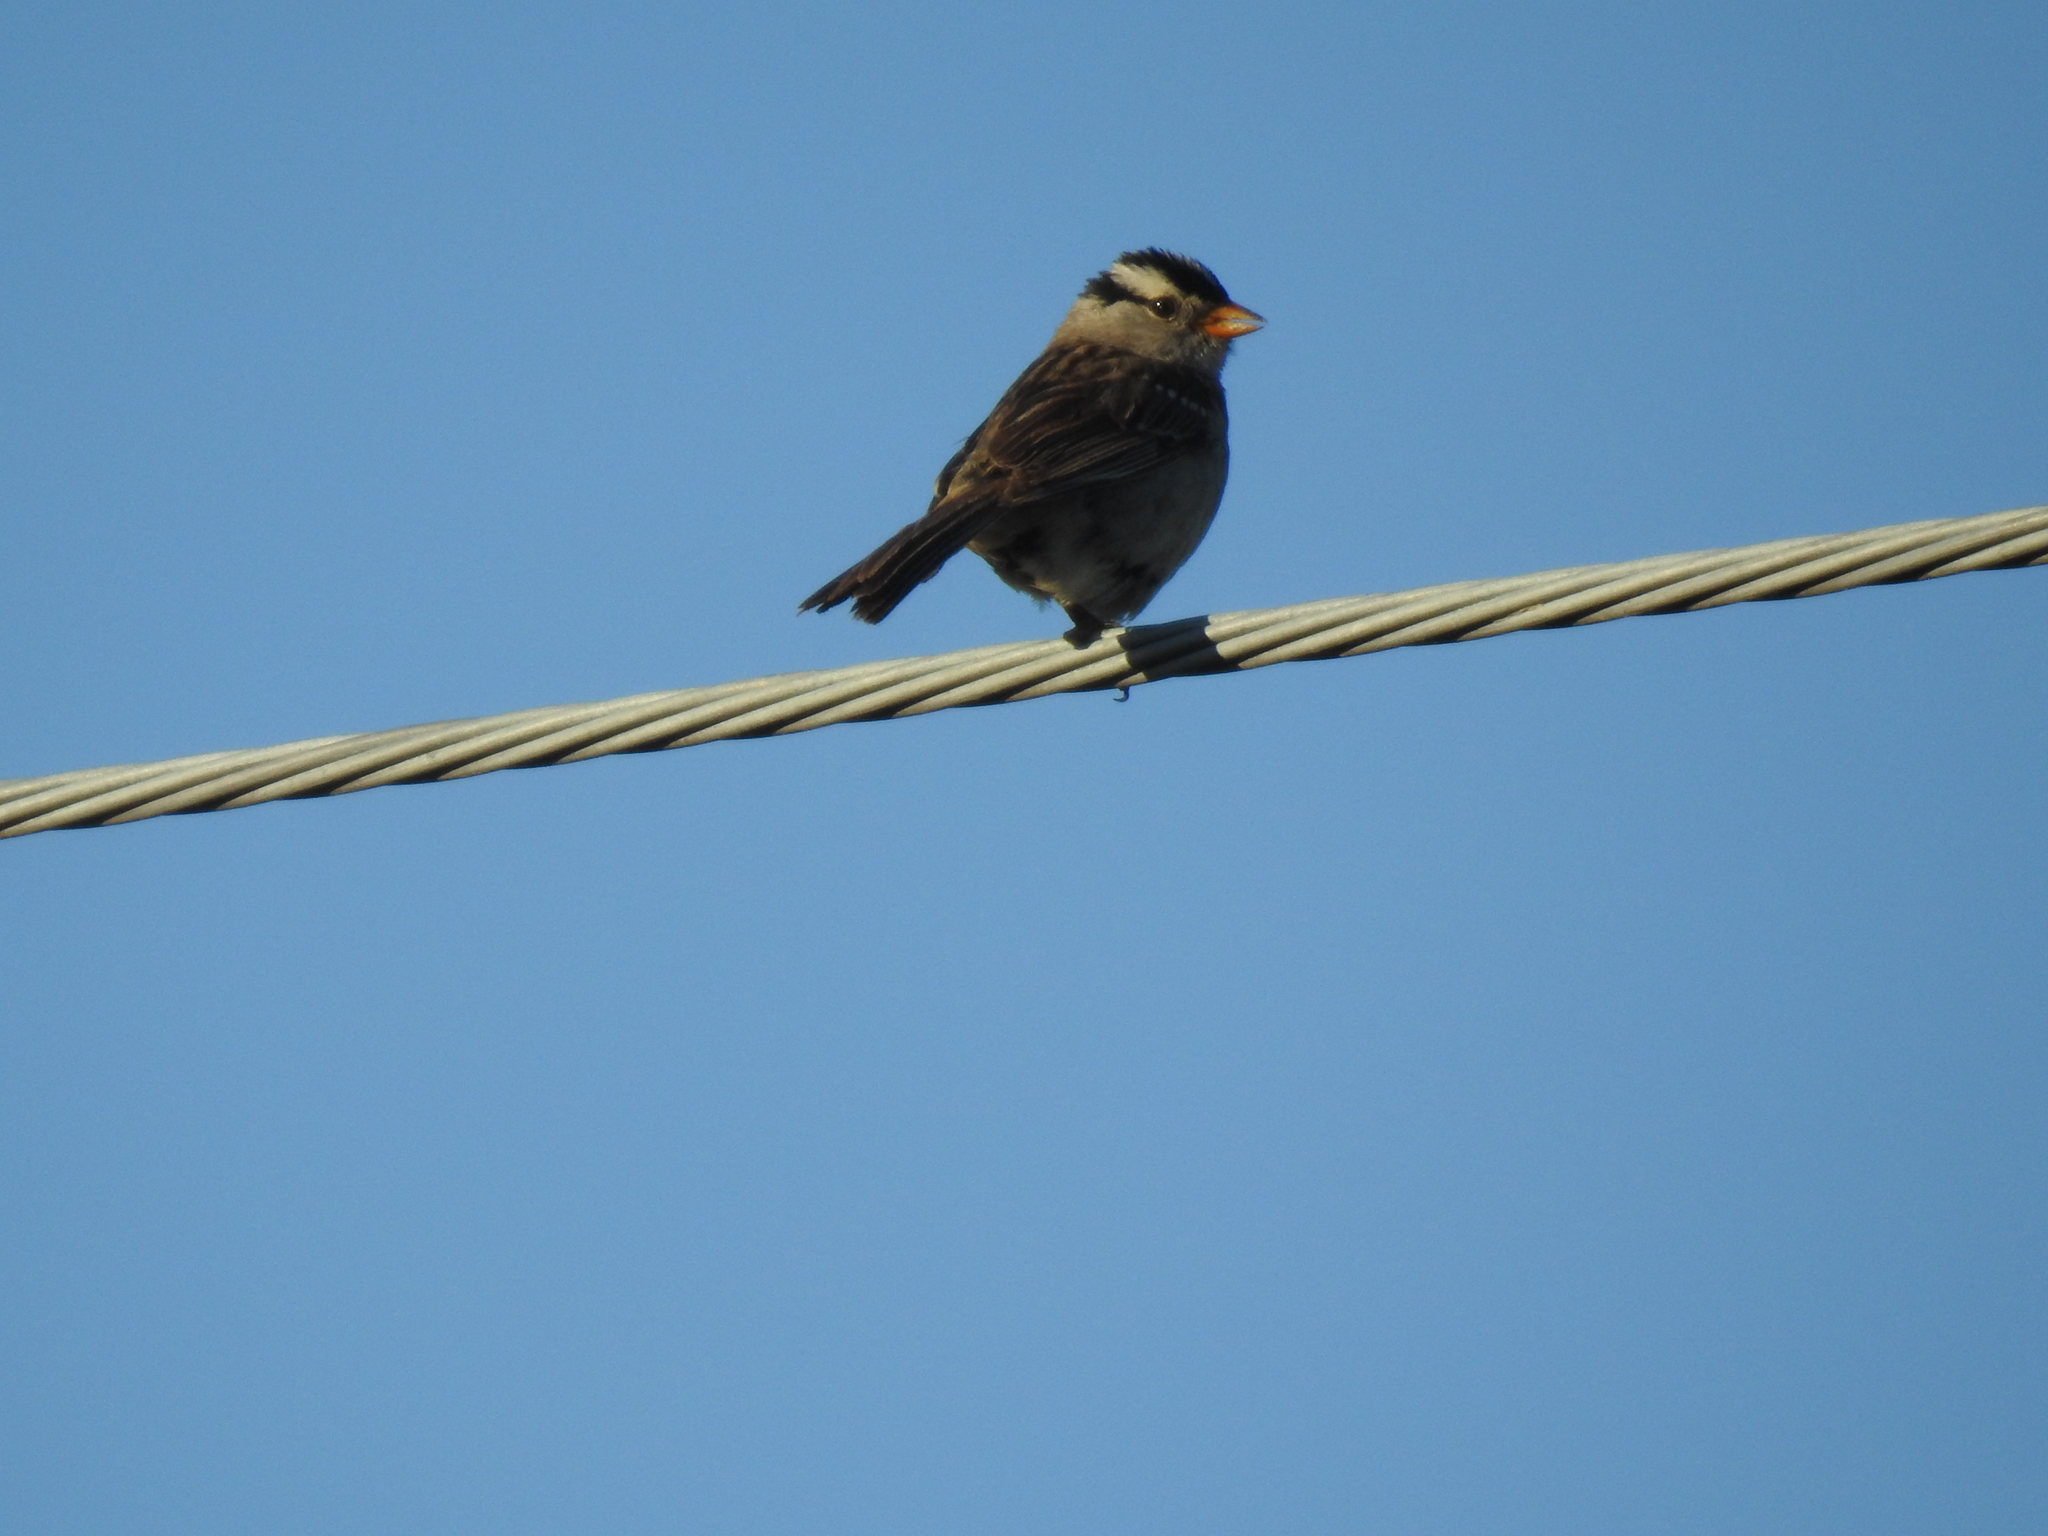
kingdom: Animalia
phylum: Chordata
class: Aves
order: Passeriformes
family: Passerellidae
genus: Zonotrichia
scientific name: Zonotrichia leucophrys
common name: White-crowned sparrow
